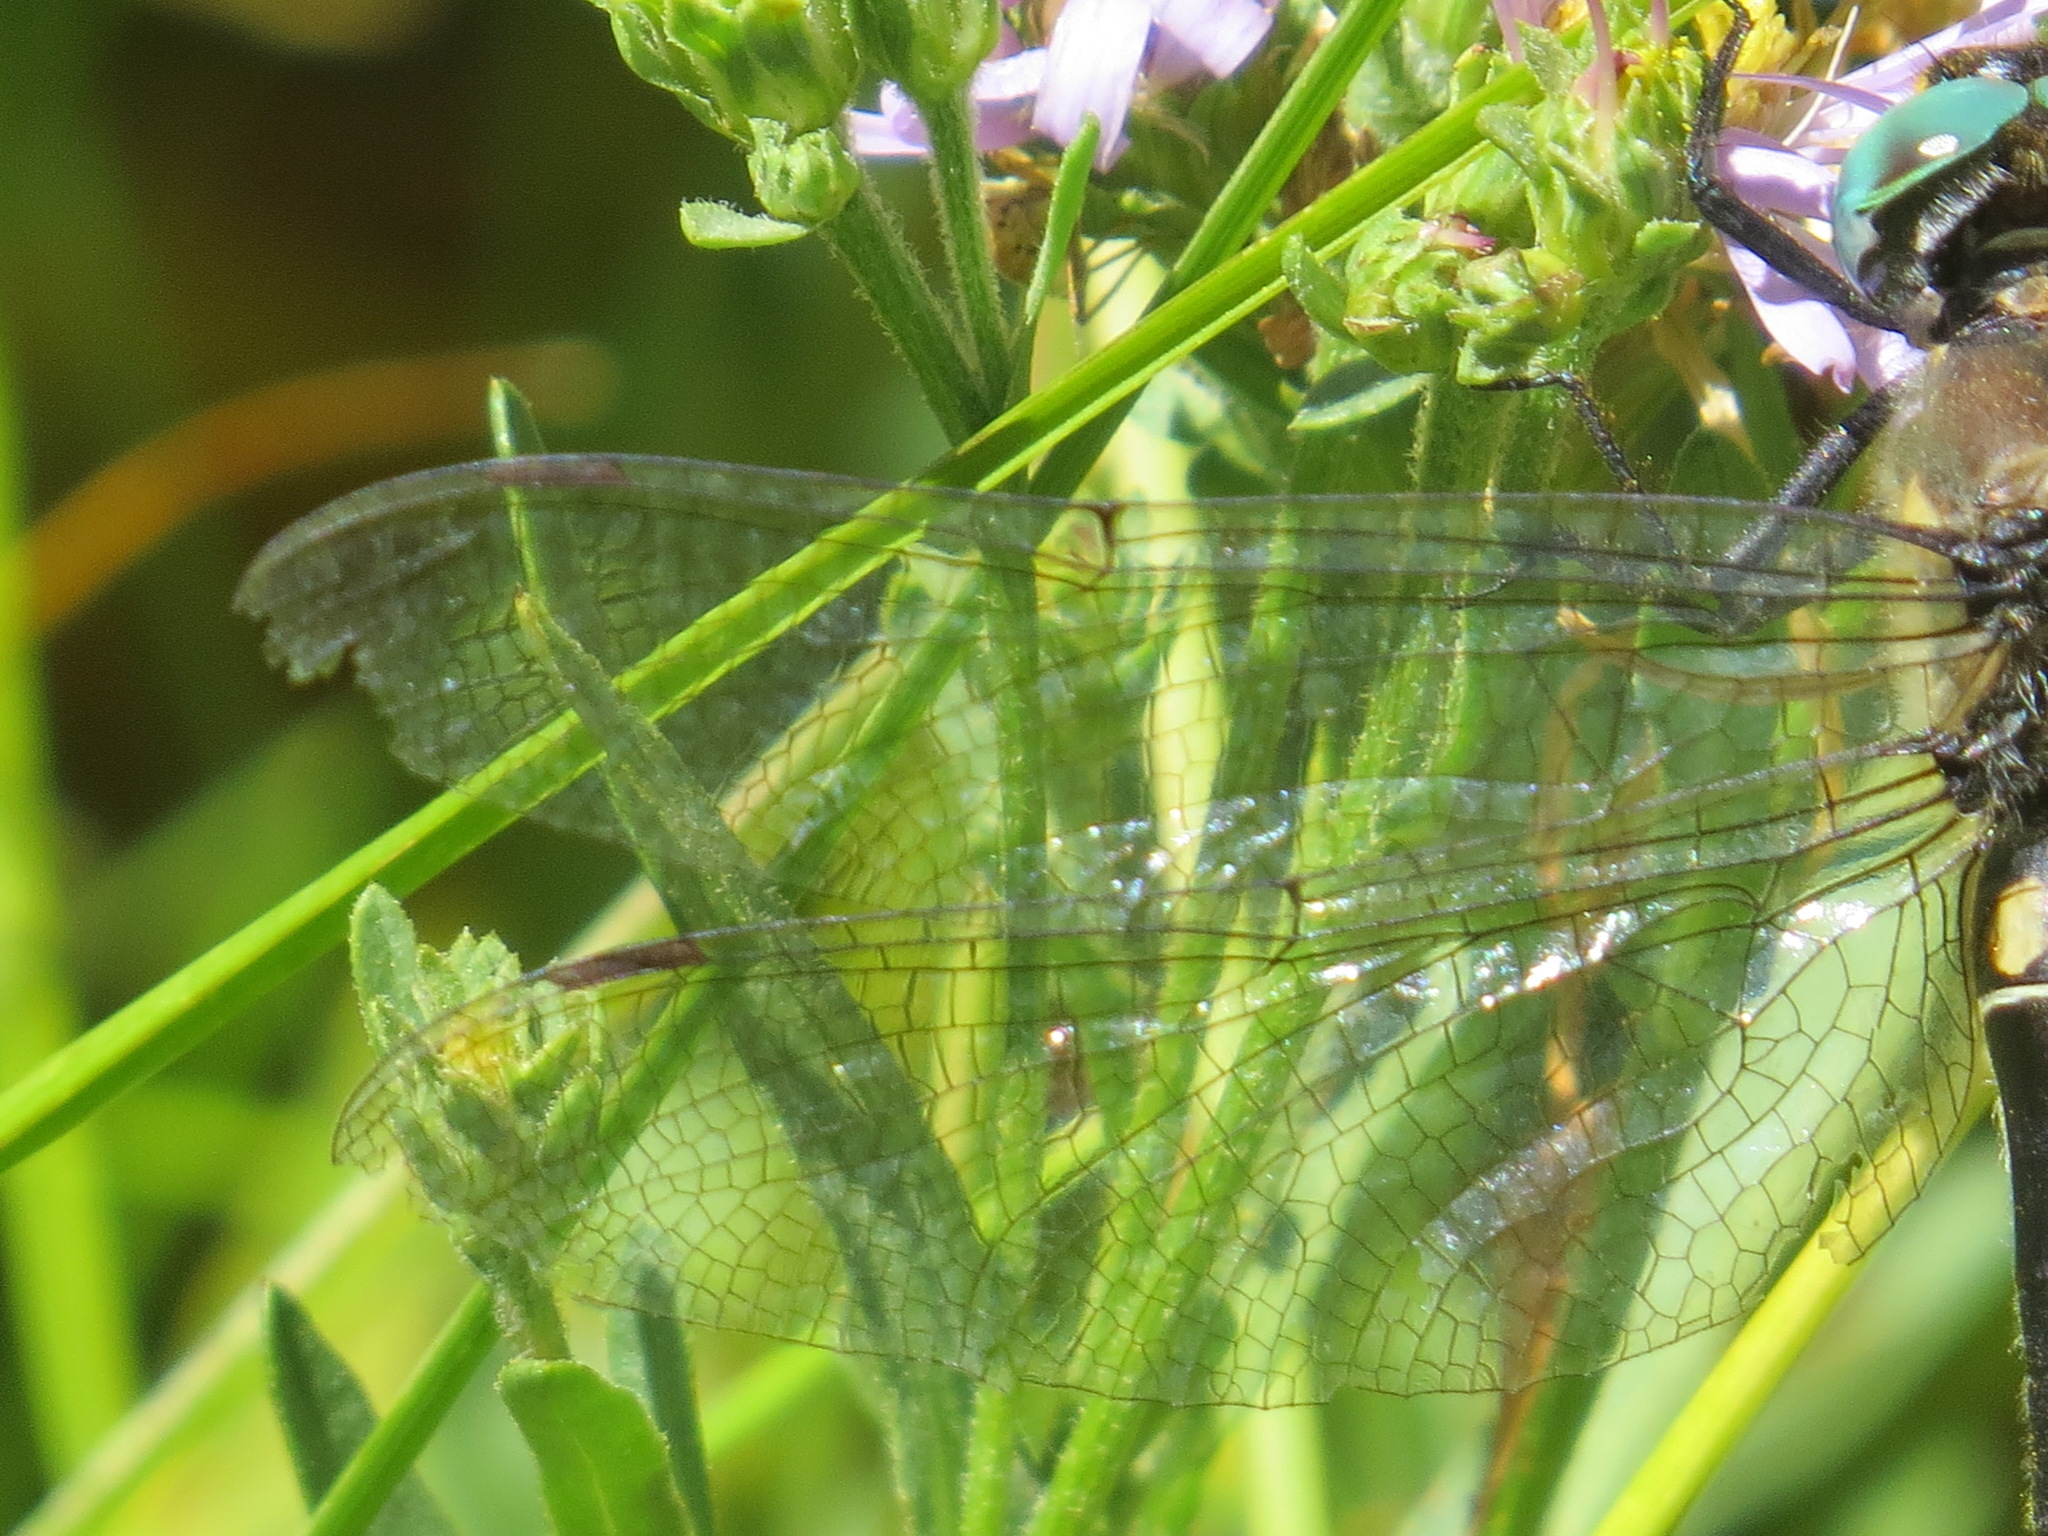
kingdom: Animalia
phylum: Arthropoda
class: Insecta
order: Odonata
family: Corduliidae
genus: Somatochlora
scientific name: Somatochlora semicircularis
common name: Mountain emerald
